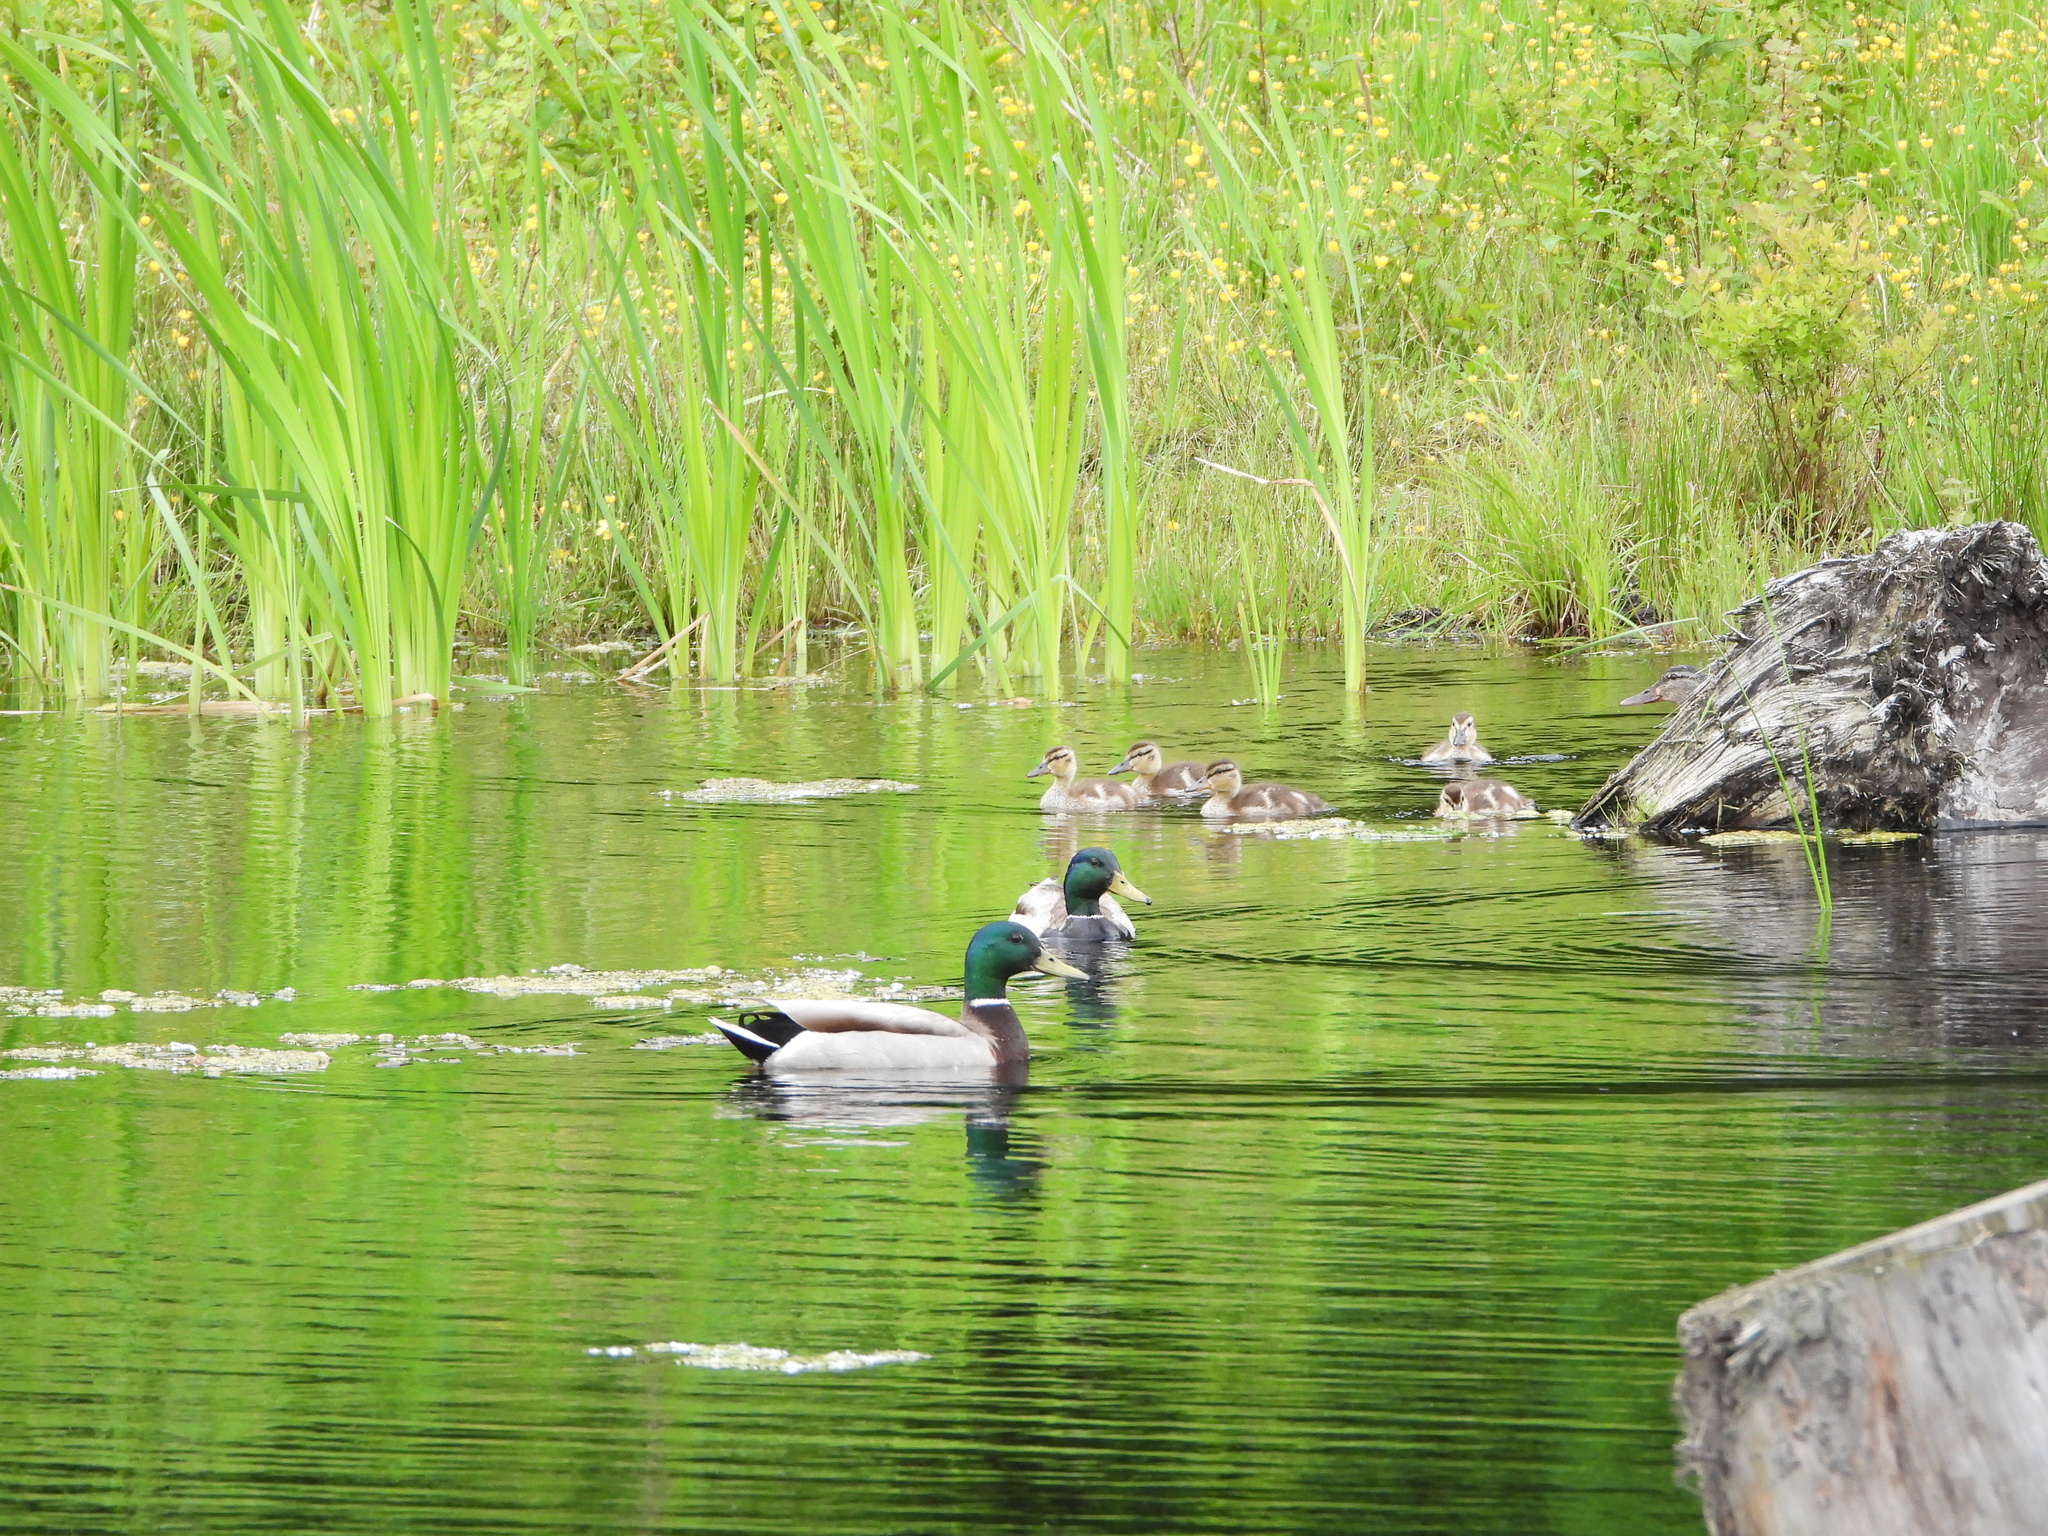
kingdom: Animalia
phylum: Chordata
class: Aves
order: Anseriformes
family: Anatidae
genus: Anas
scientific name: Anas platyrhynchos
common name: Mallard
